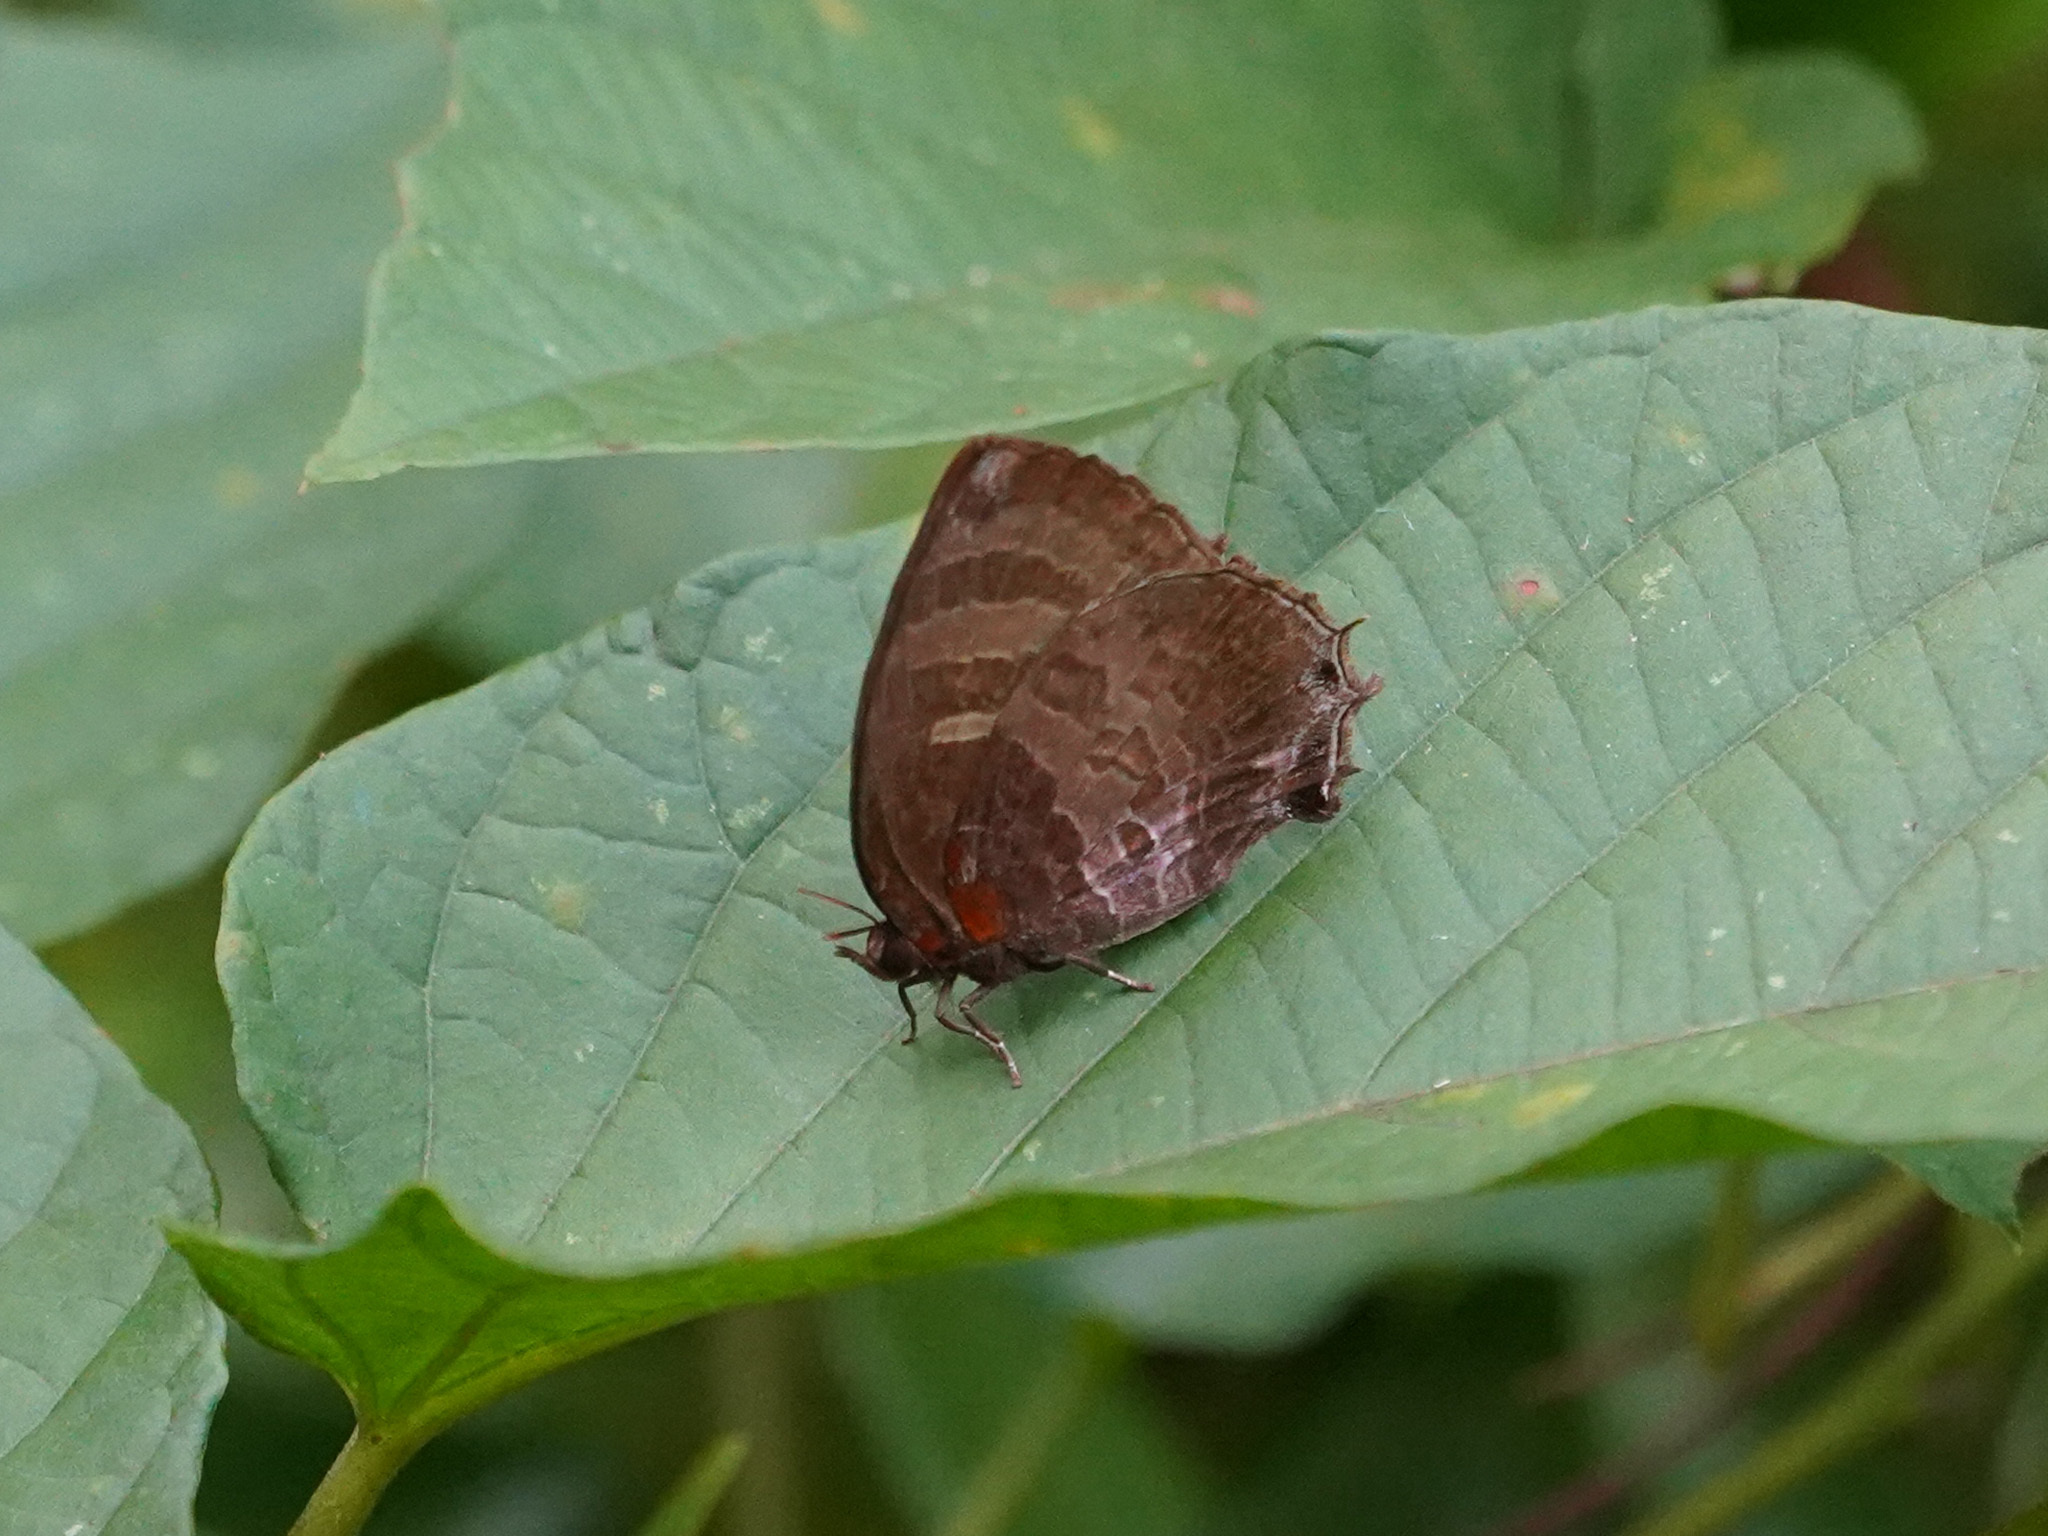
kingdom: Animalia
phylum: Arthropoda
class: Insecta
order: Lepidoptera
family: Lycaenidae
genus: Flos
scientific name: Flos apidanus
